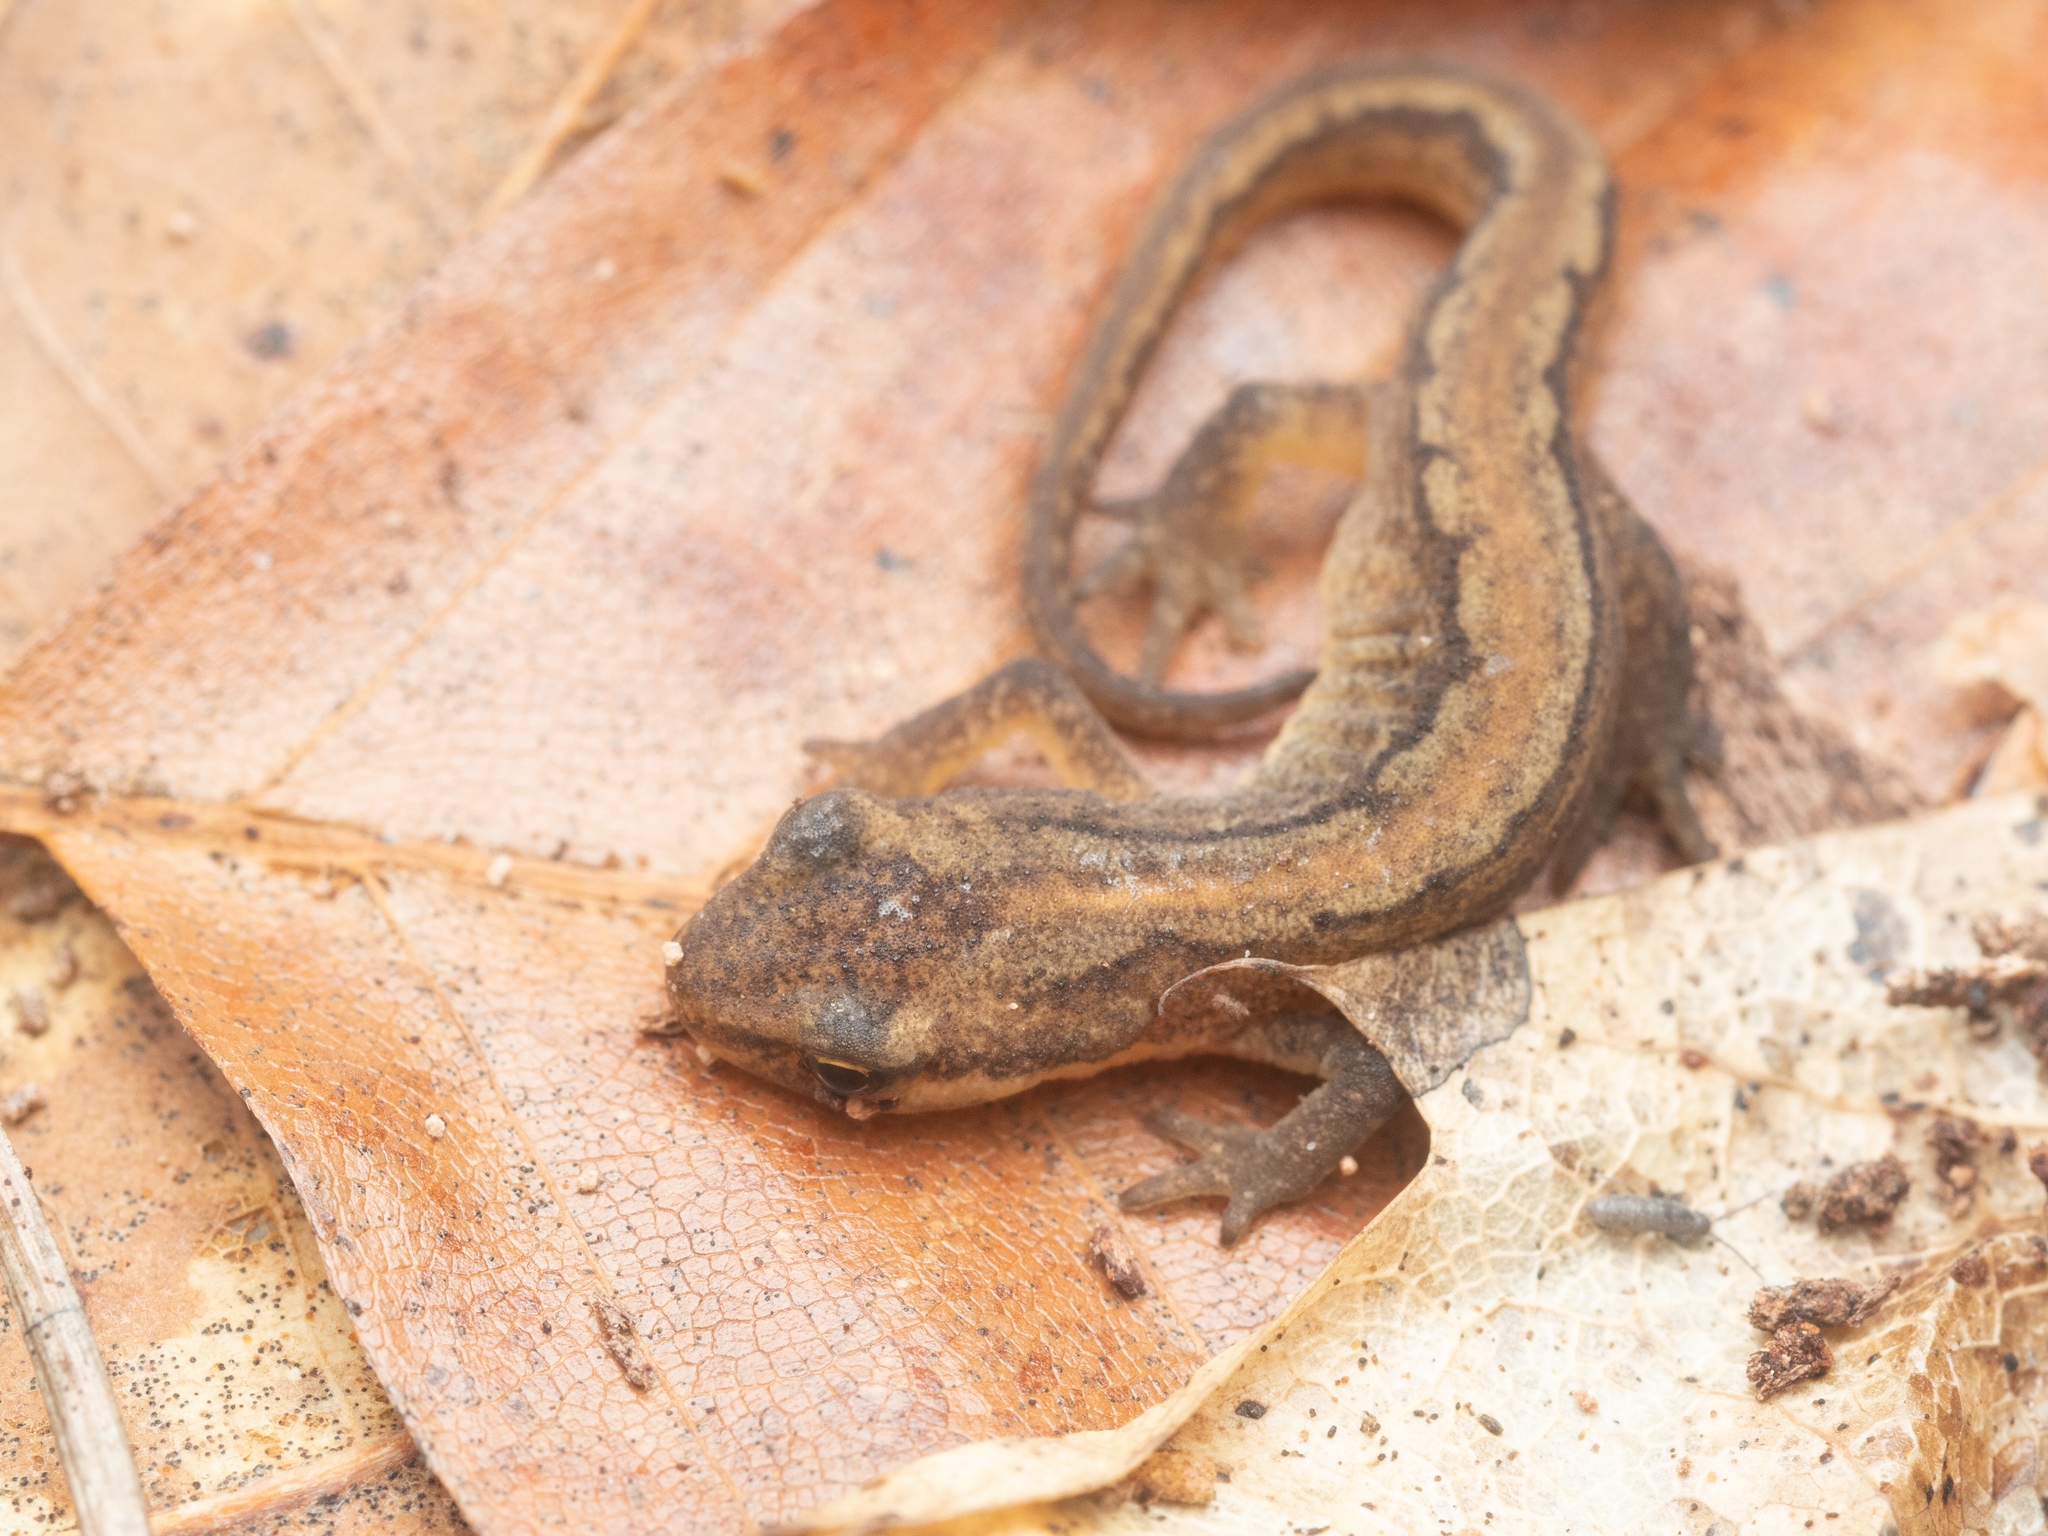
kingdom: Animalia
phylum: Chordata
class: Amphibia
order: Caudata
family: Salamandridae
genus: Lissotriton
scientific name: Lissotriton vulgaris
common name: Smooth newt
